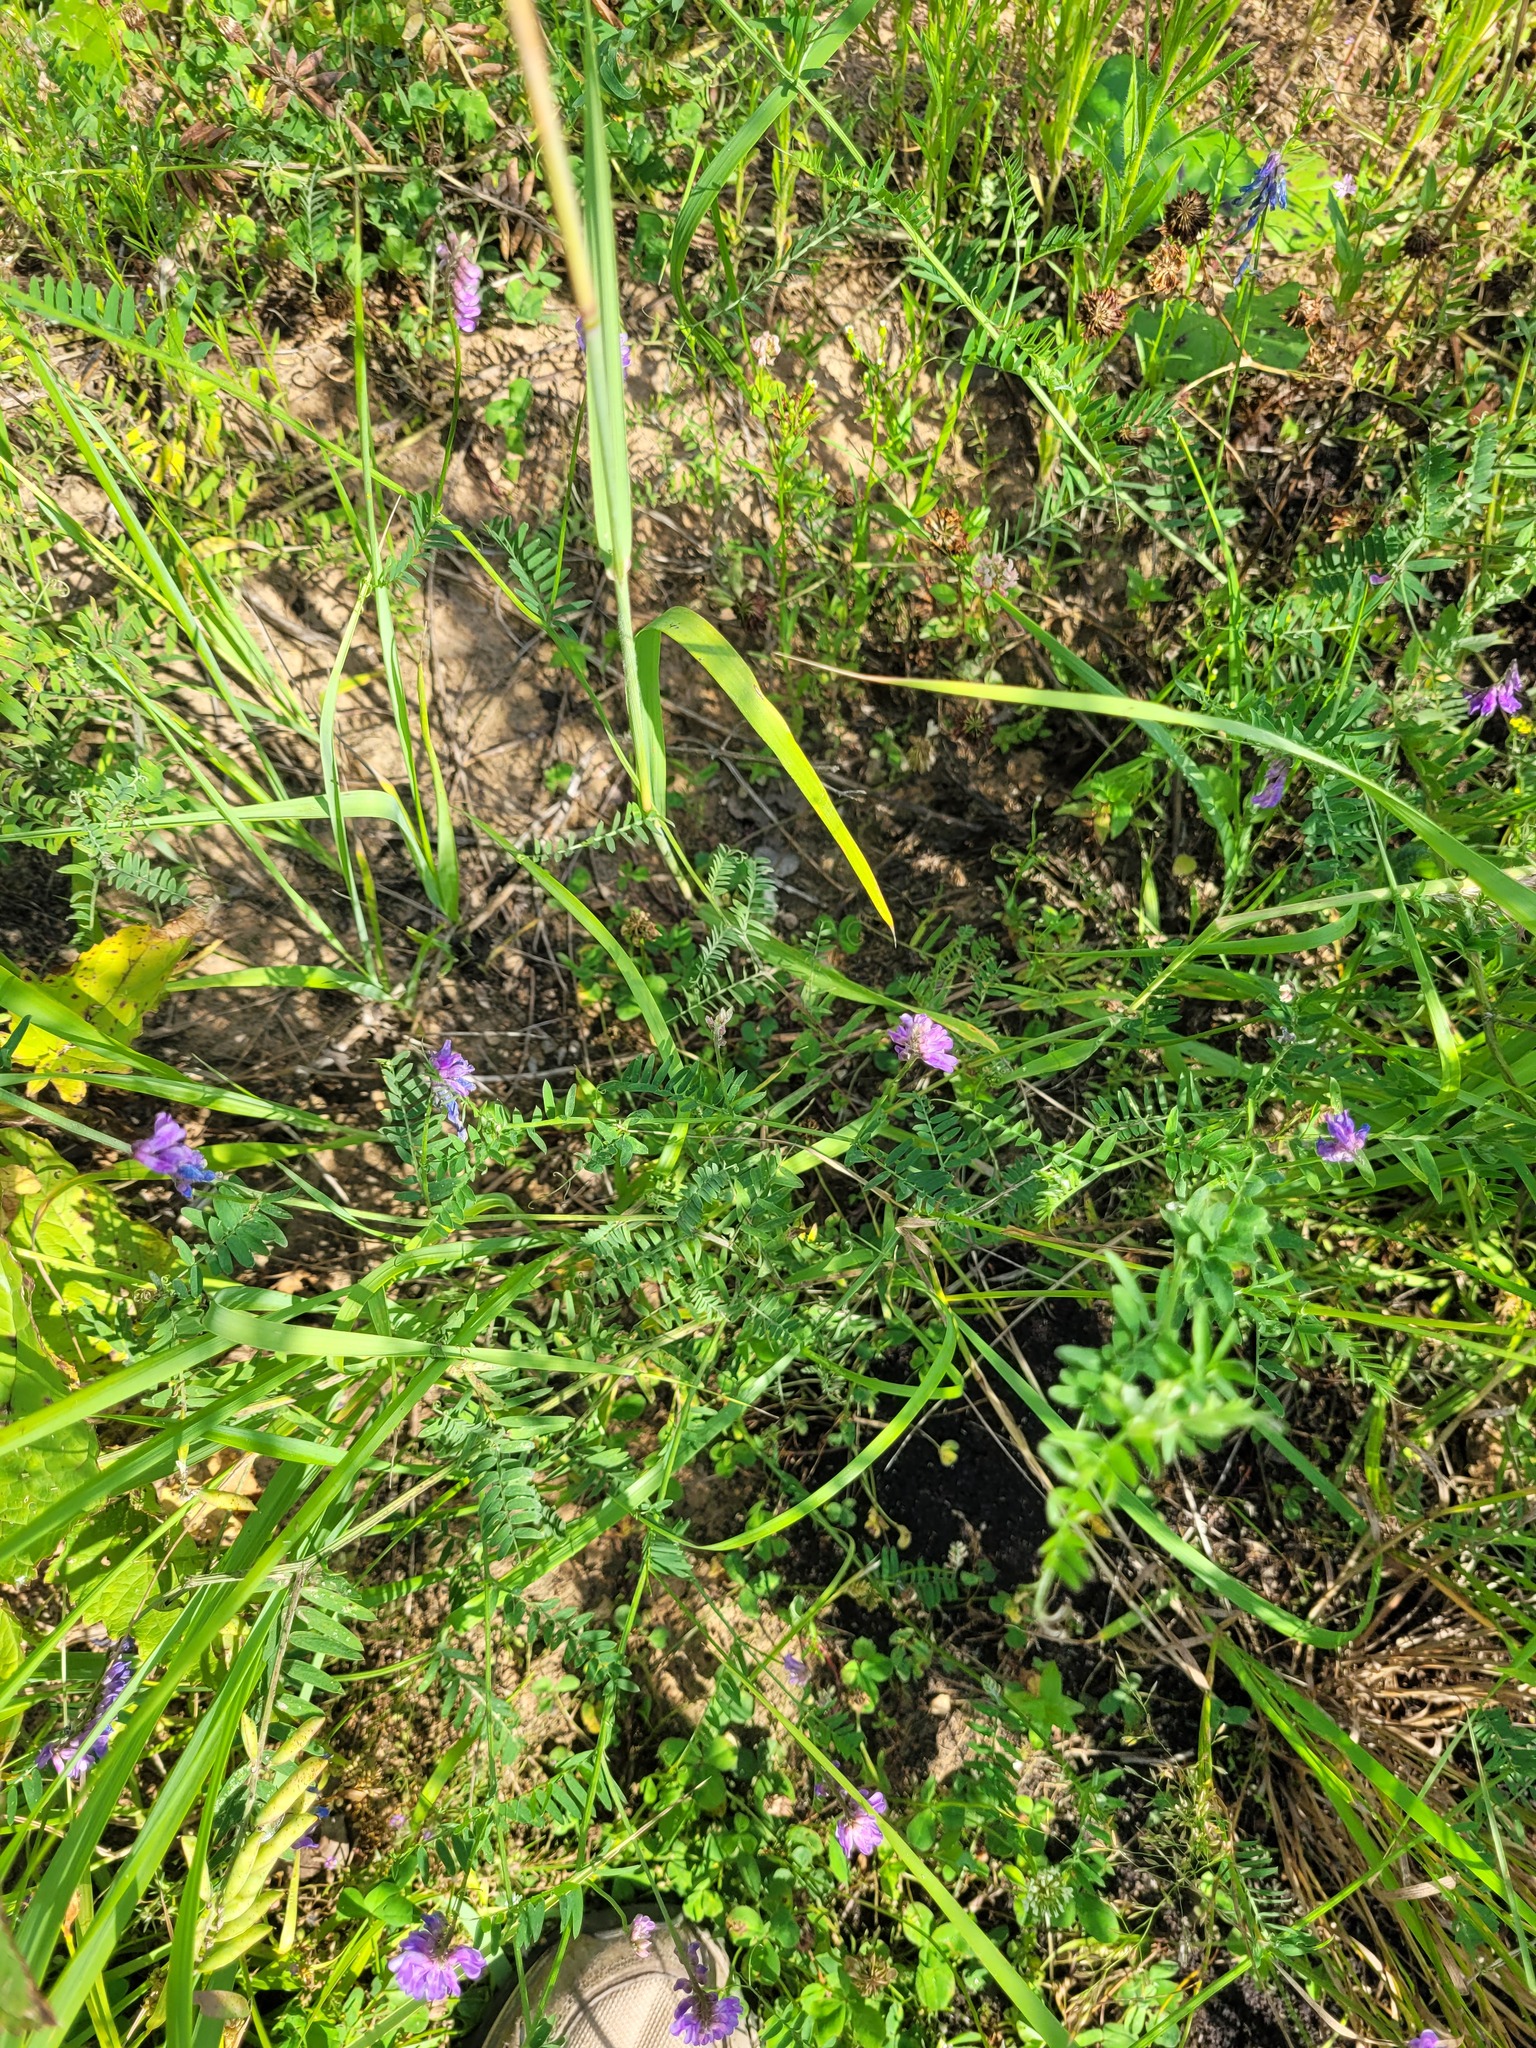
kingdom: Plantae
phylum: Tracheophyta
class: Magnoliopsida
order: Fabales
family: Fabaceae
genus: Vicia
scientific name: Vicia cracca
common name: Bird vetch
